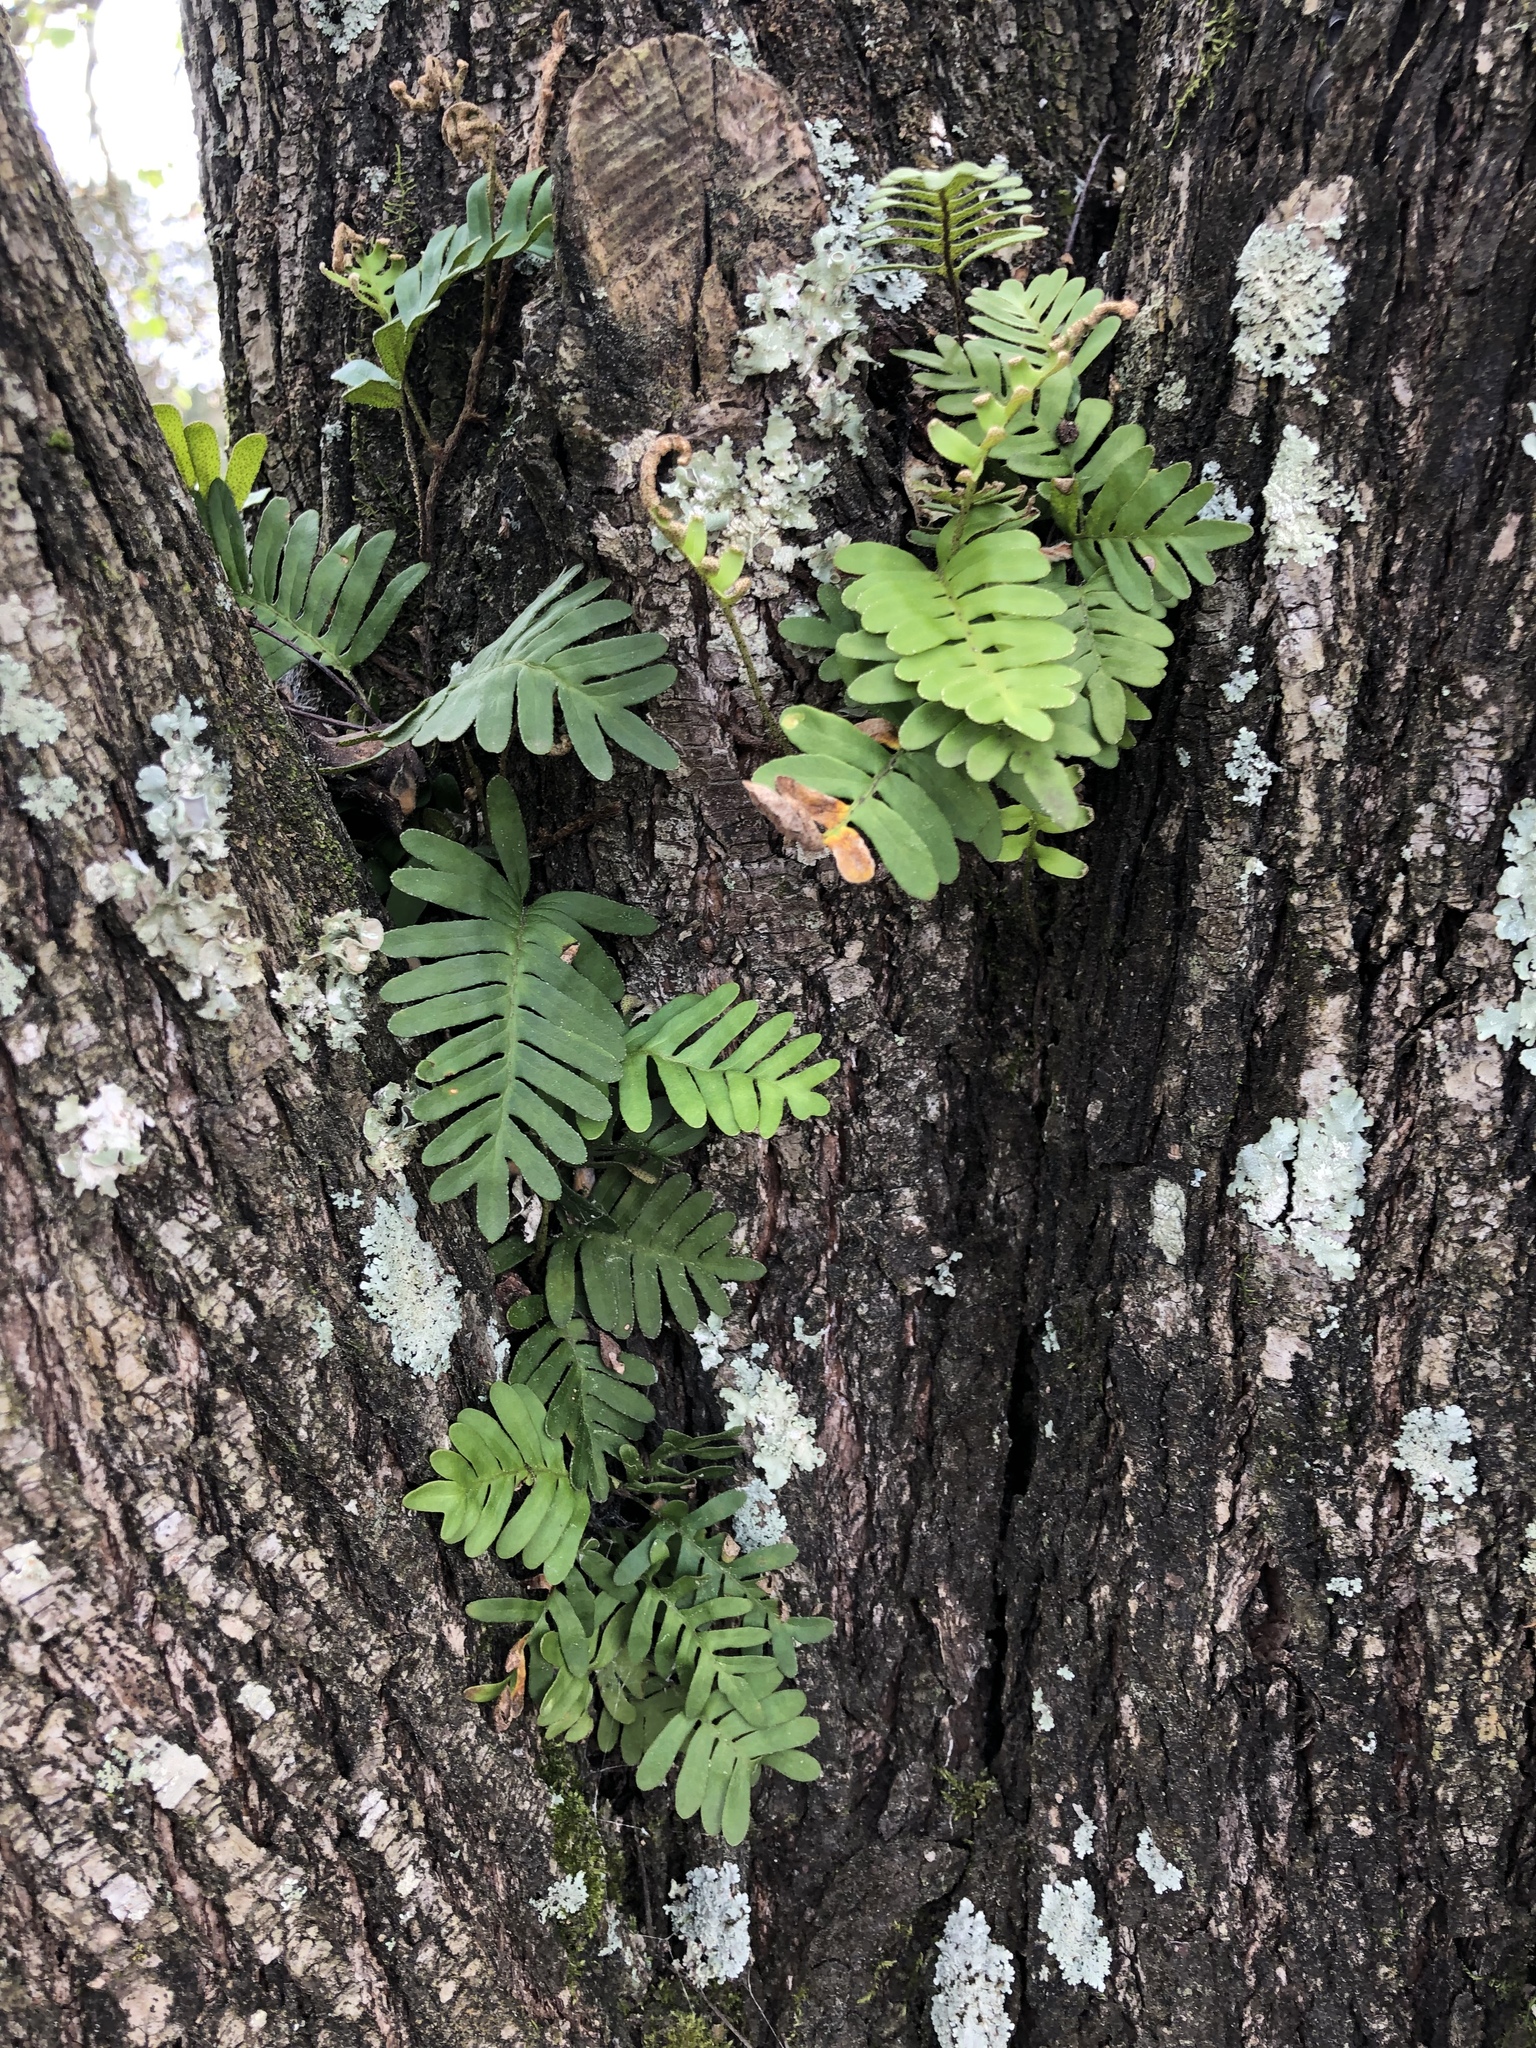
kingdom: Plantae
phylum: Tracheophyta
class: Polypodiopsida
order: Polypodiales
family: Polypodiaceae
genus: Pleopeltis
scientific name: Pleopeltis michauxiana
